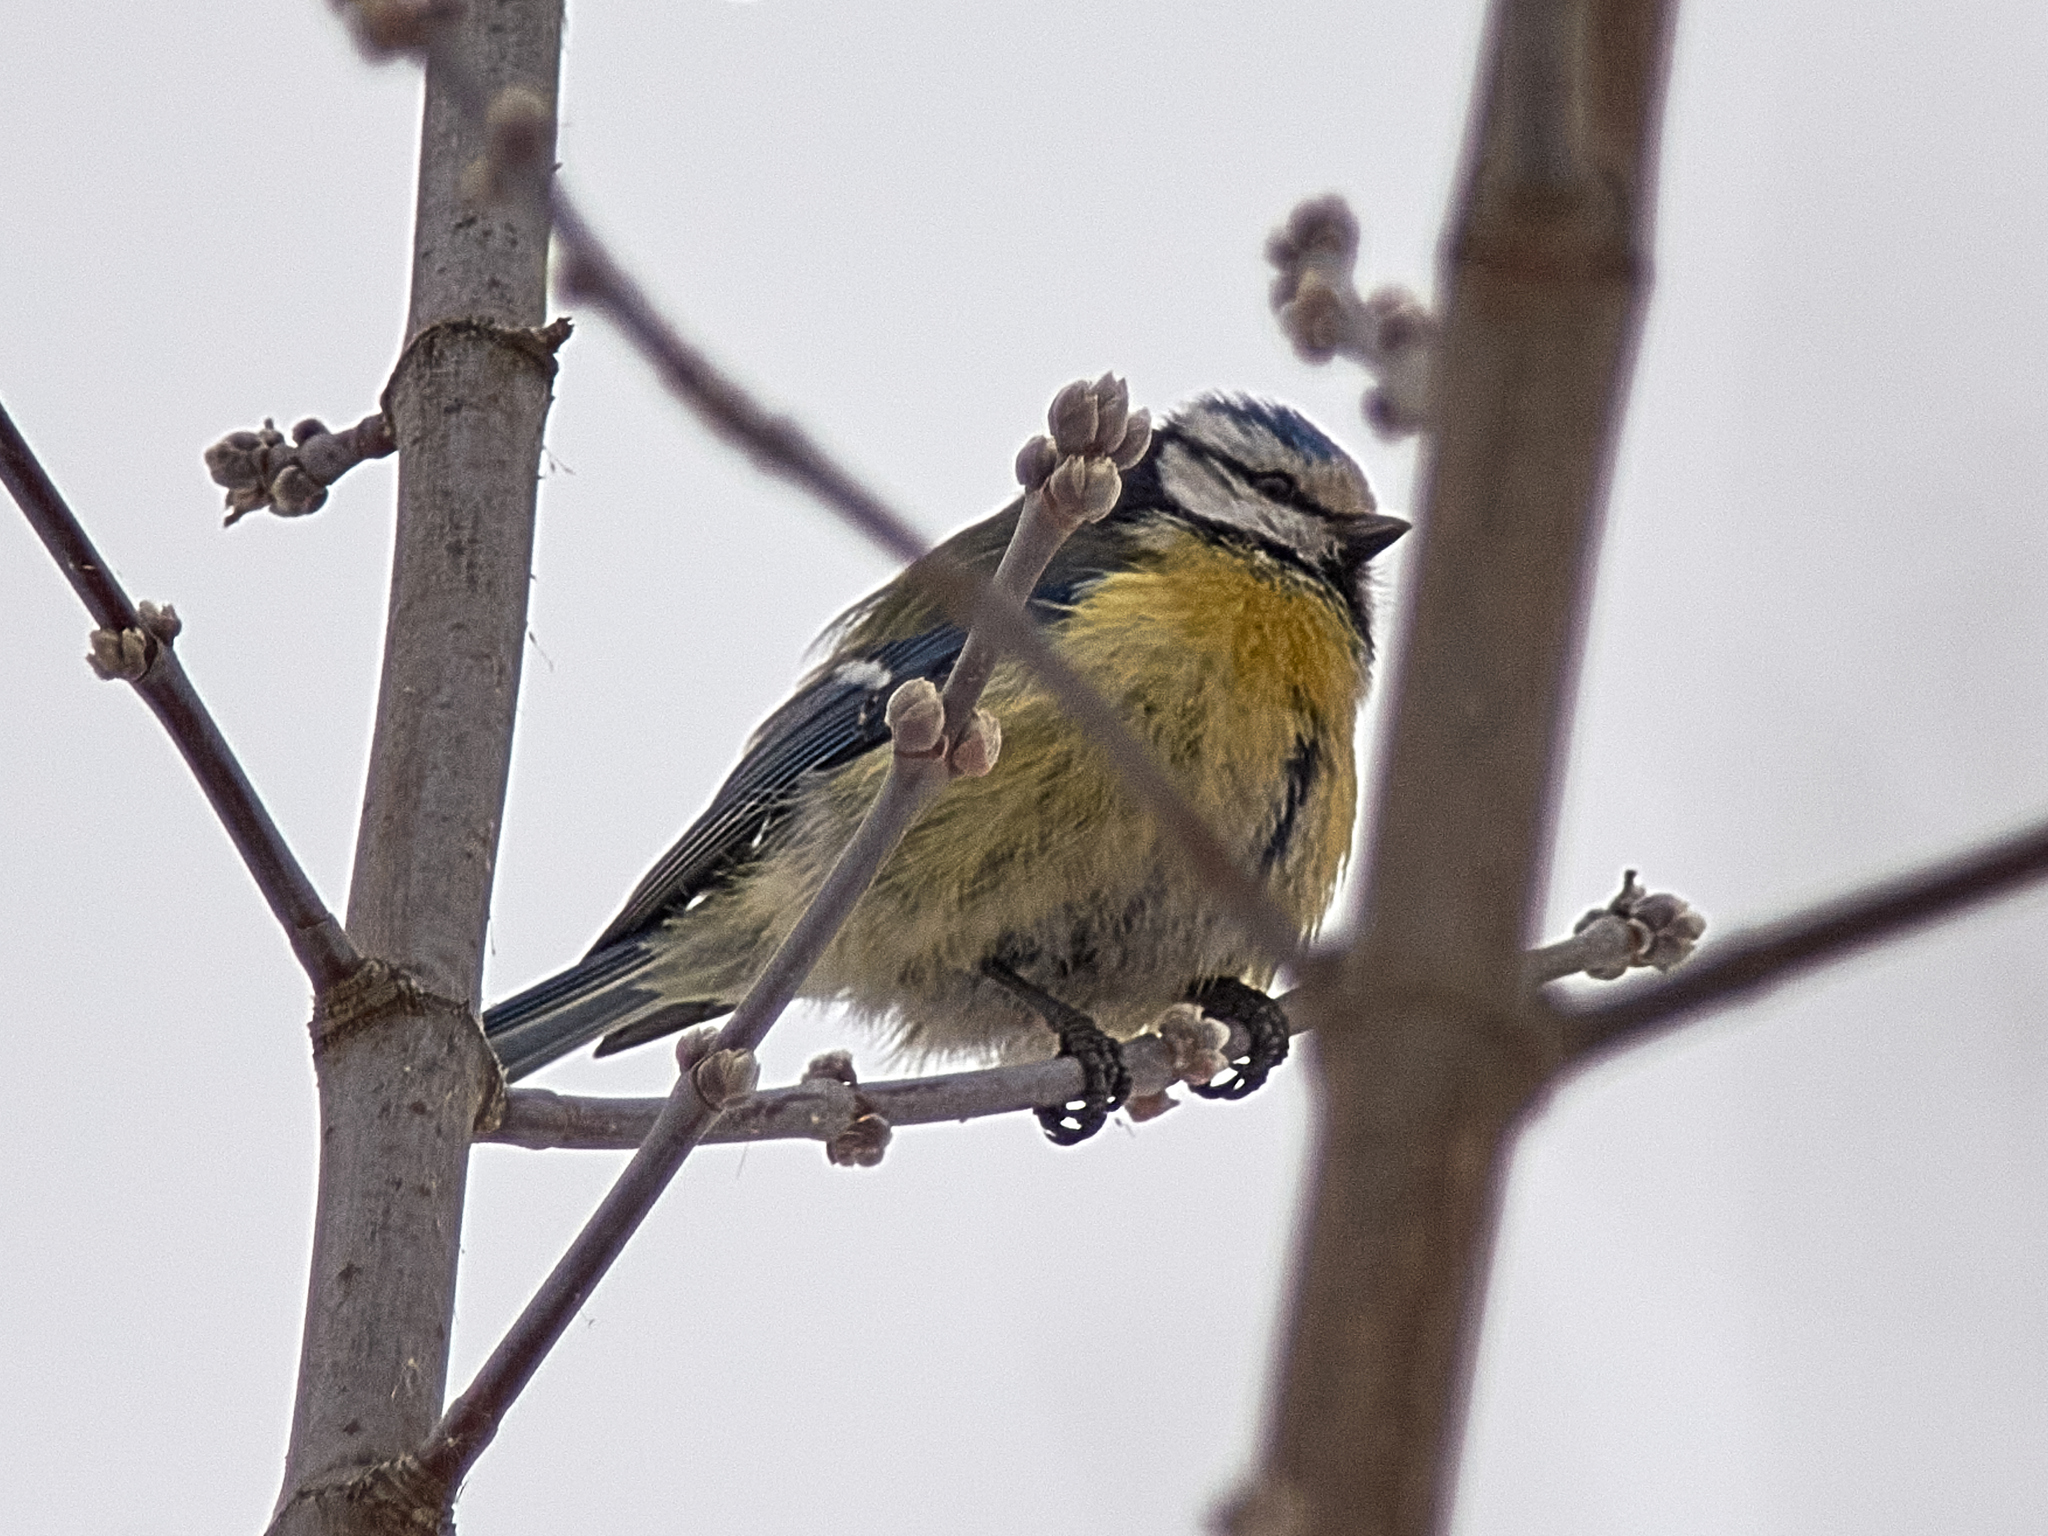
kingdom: Animalia
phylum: Chordata
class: Aves
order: Passeriformes
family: Paridae
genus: Cyanistes
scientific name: Cyanistes caeruleus
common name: Eurasian blue tit
